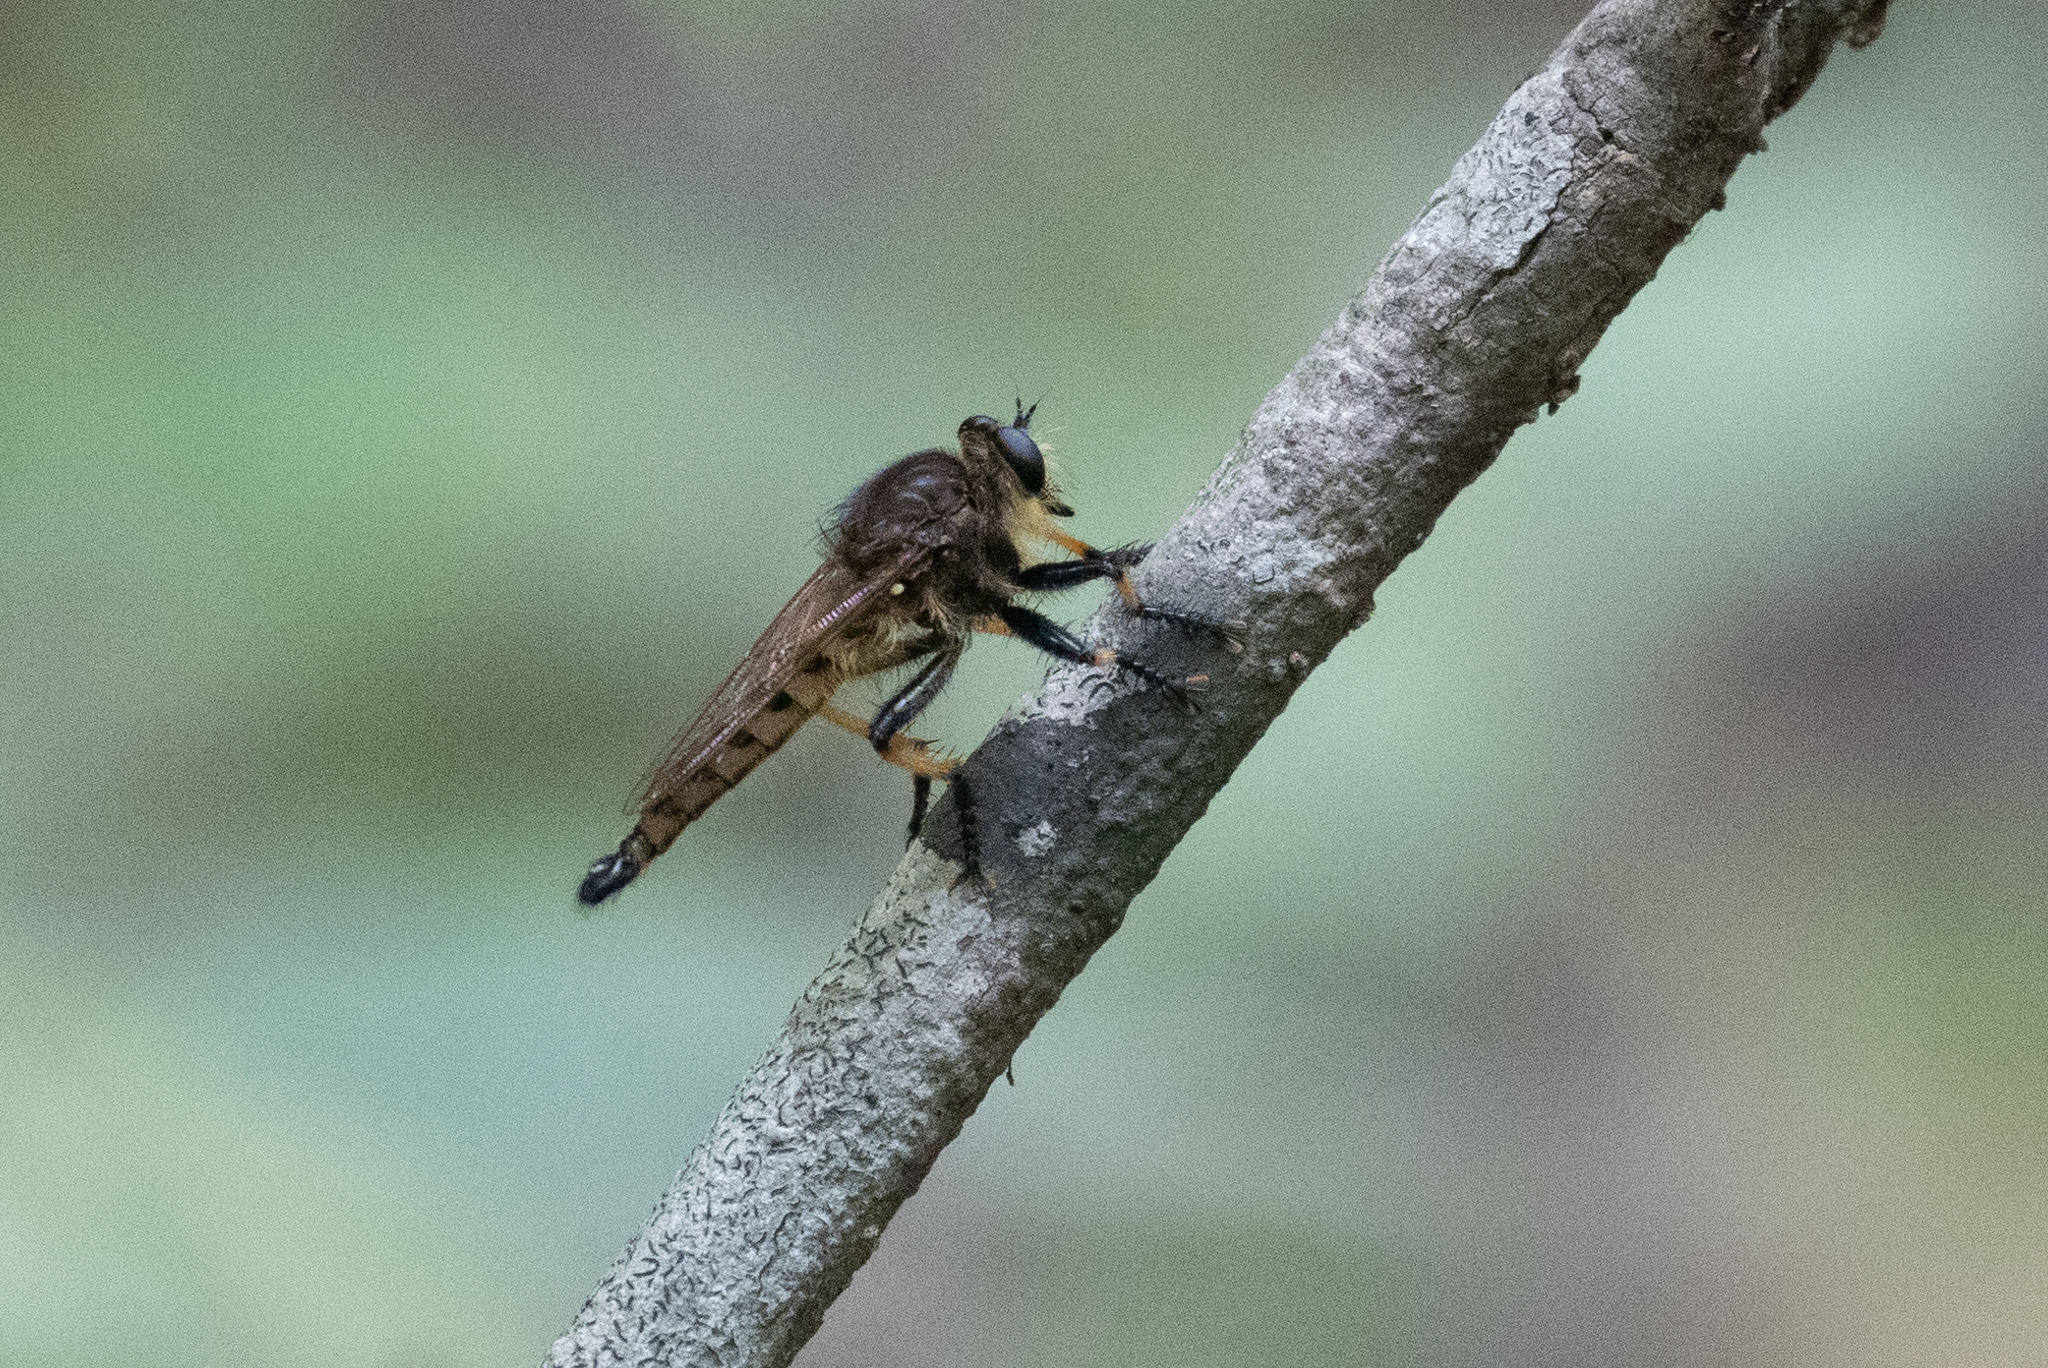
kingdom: Animalia
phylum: Arthropoda
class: Insecta
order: Diptera
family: Asilidae
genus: Promachus
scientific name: Promachus rufipes
